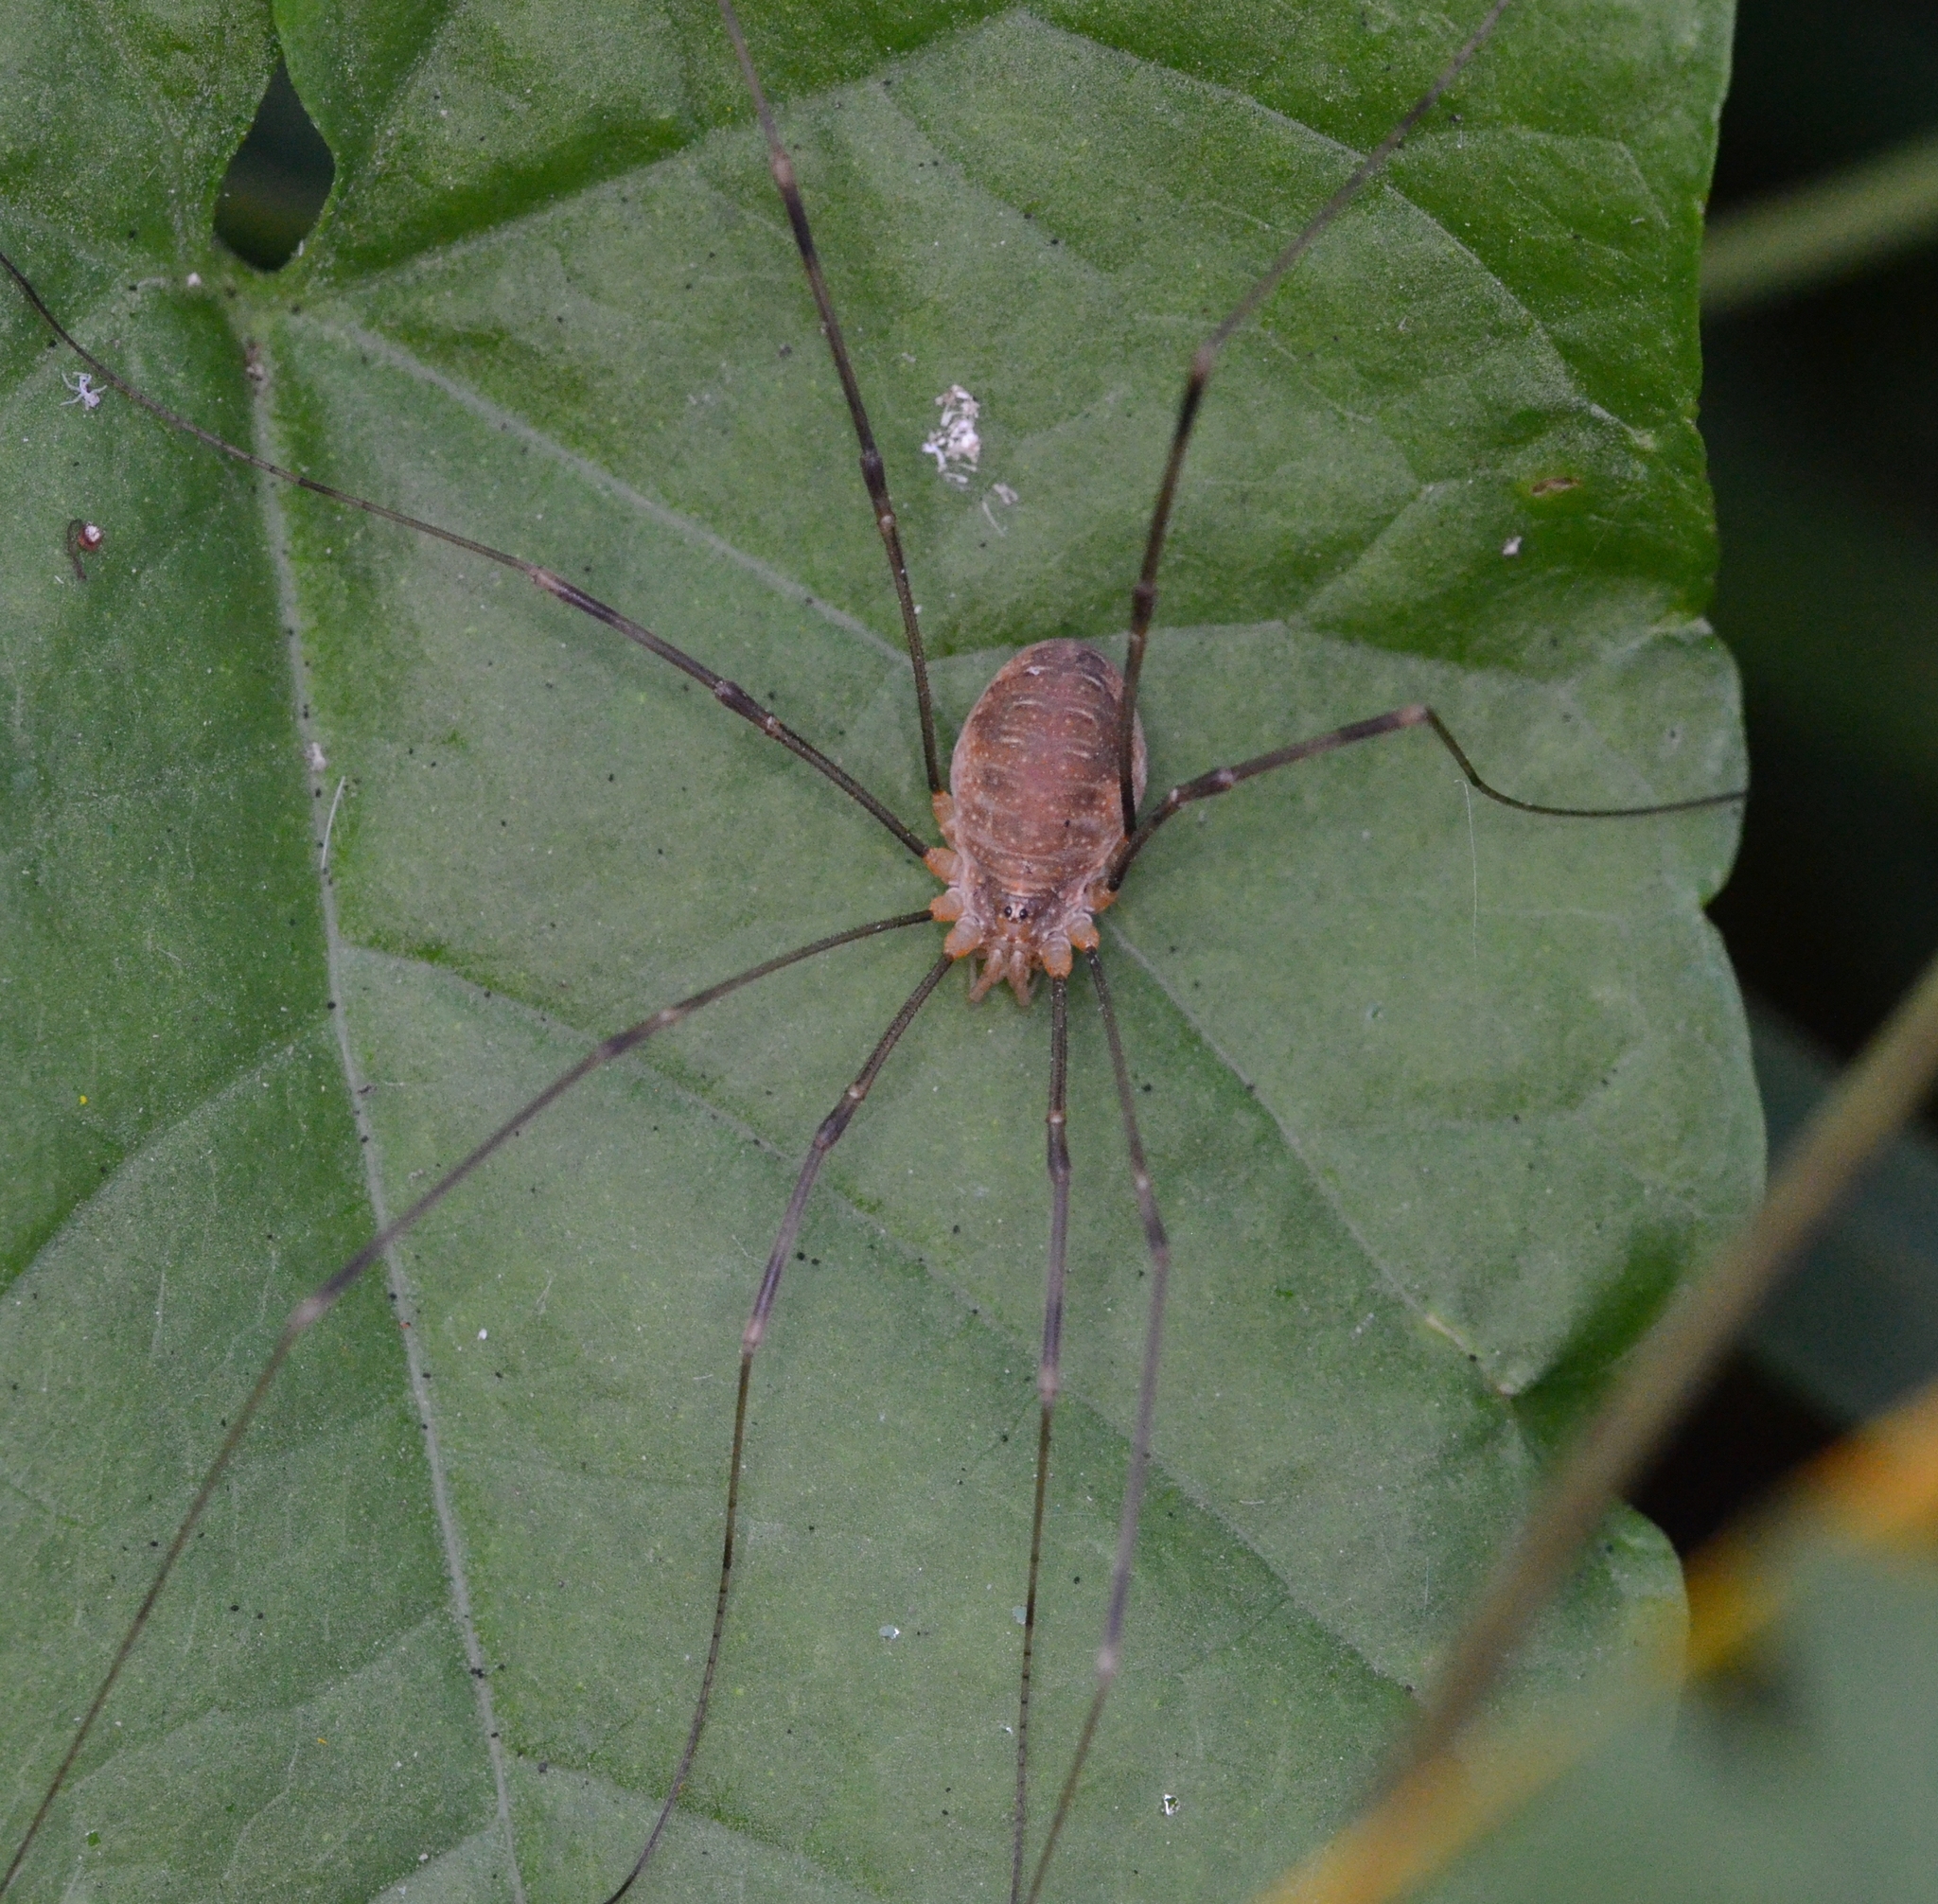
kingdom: Animalia
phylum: Arthropoda
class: Arachnida
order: Opiliones
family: Phalangiidae
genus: Opilio
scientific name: Opilio canestrinii
